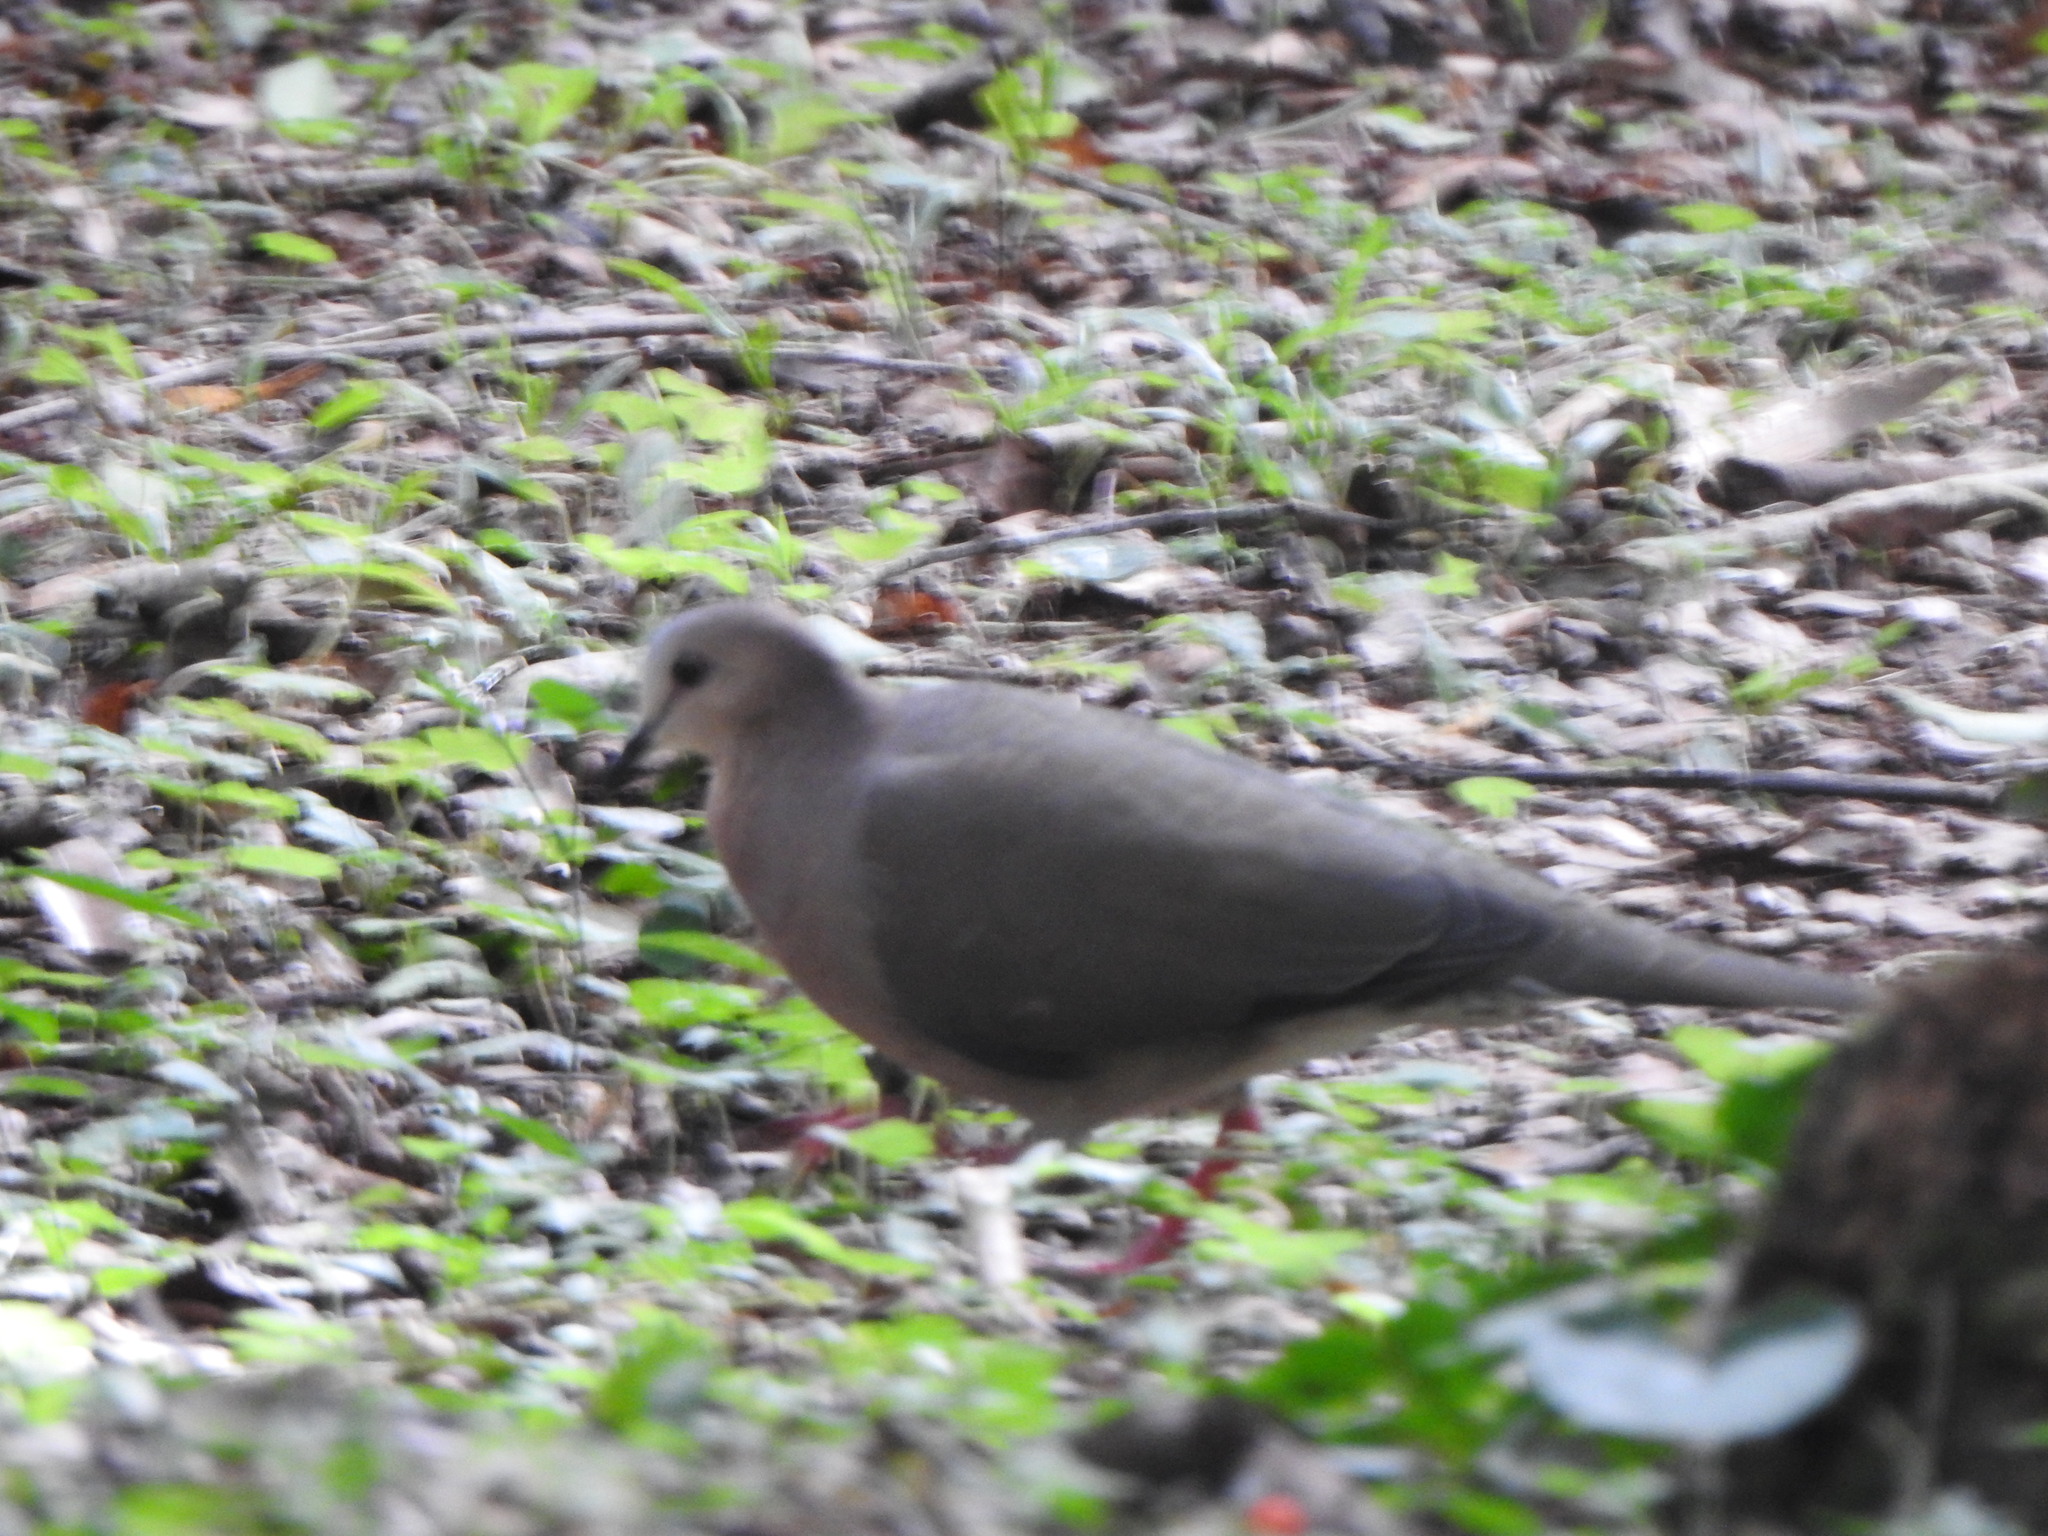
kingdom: Animalia
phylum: Chordata
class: Aves
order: Columbiformes
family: Columbidae
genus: Leptotila
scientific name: Leptotila verreauxi
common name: White-tipped dove
